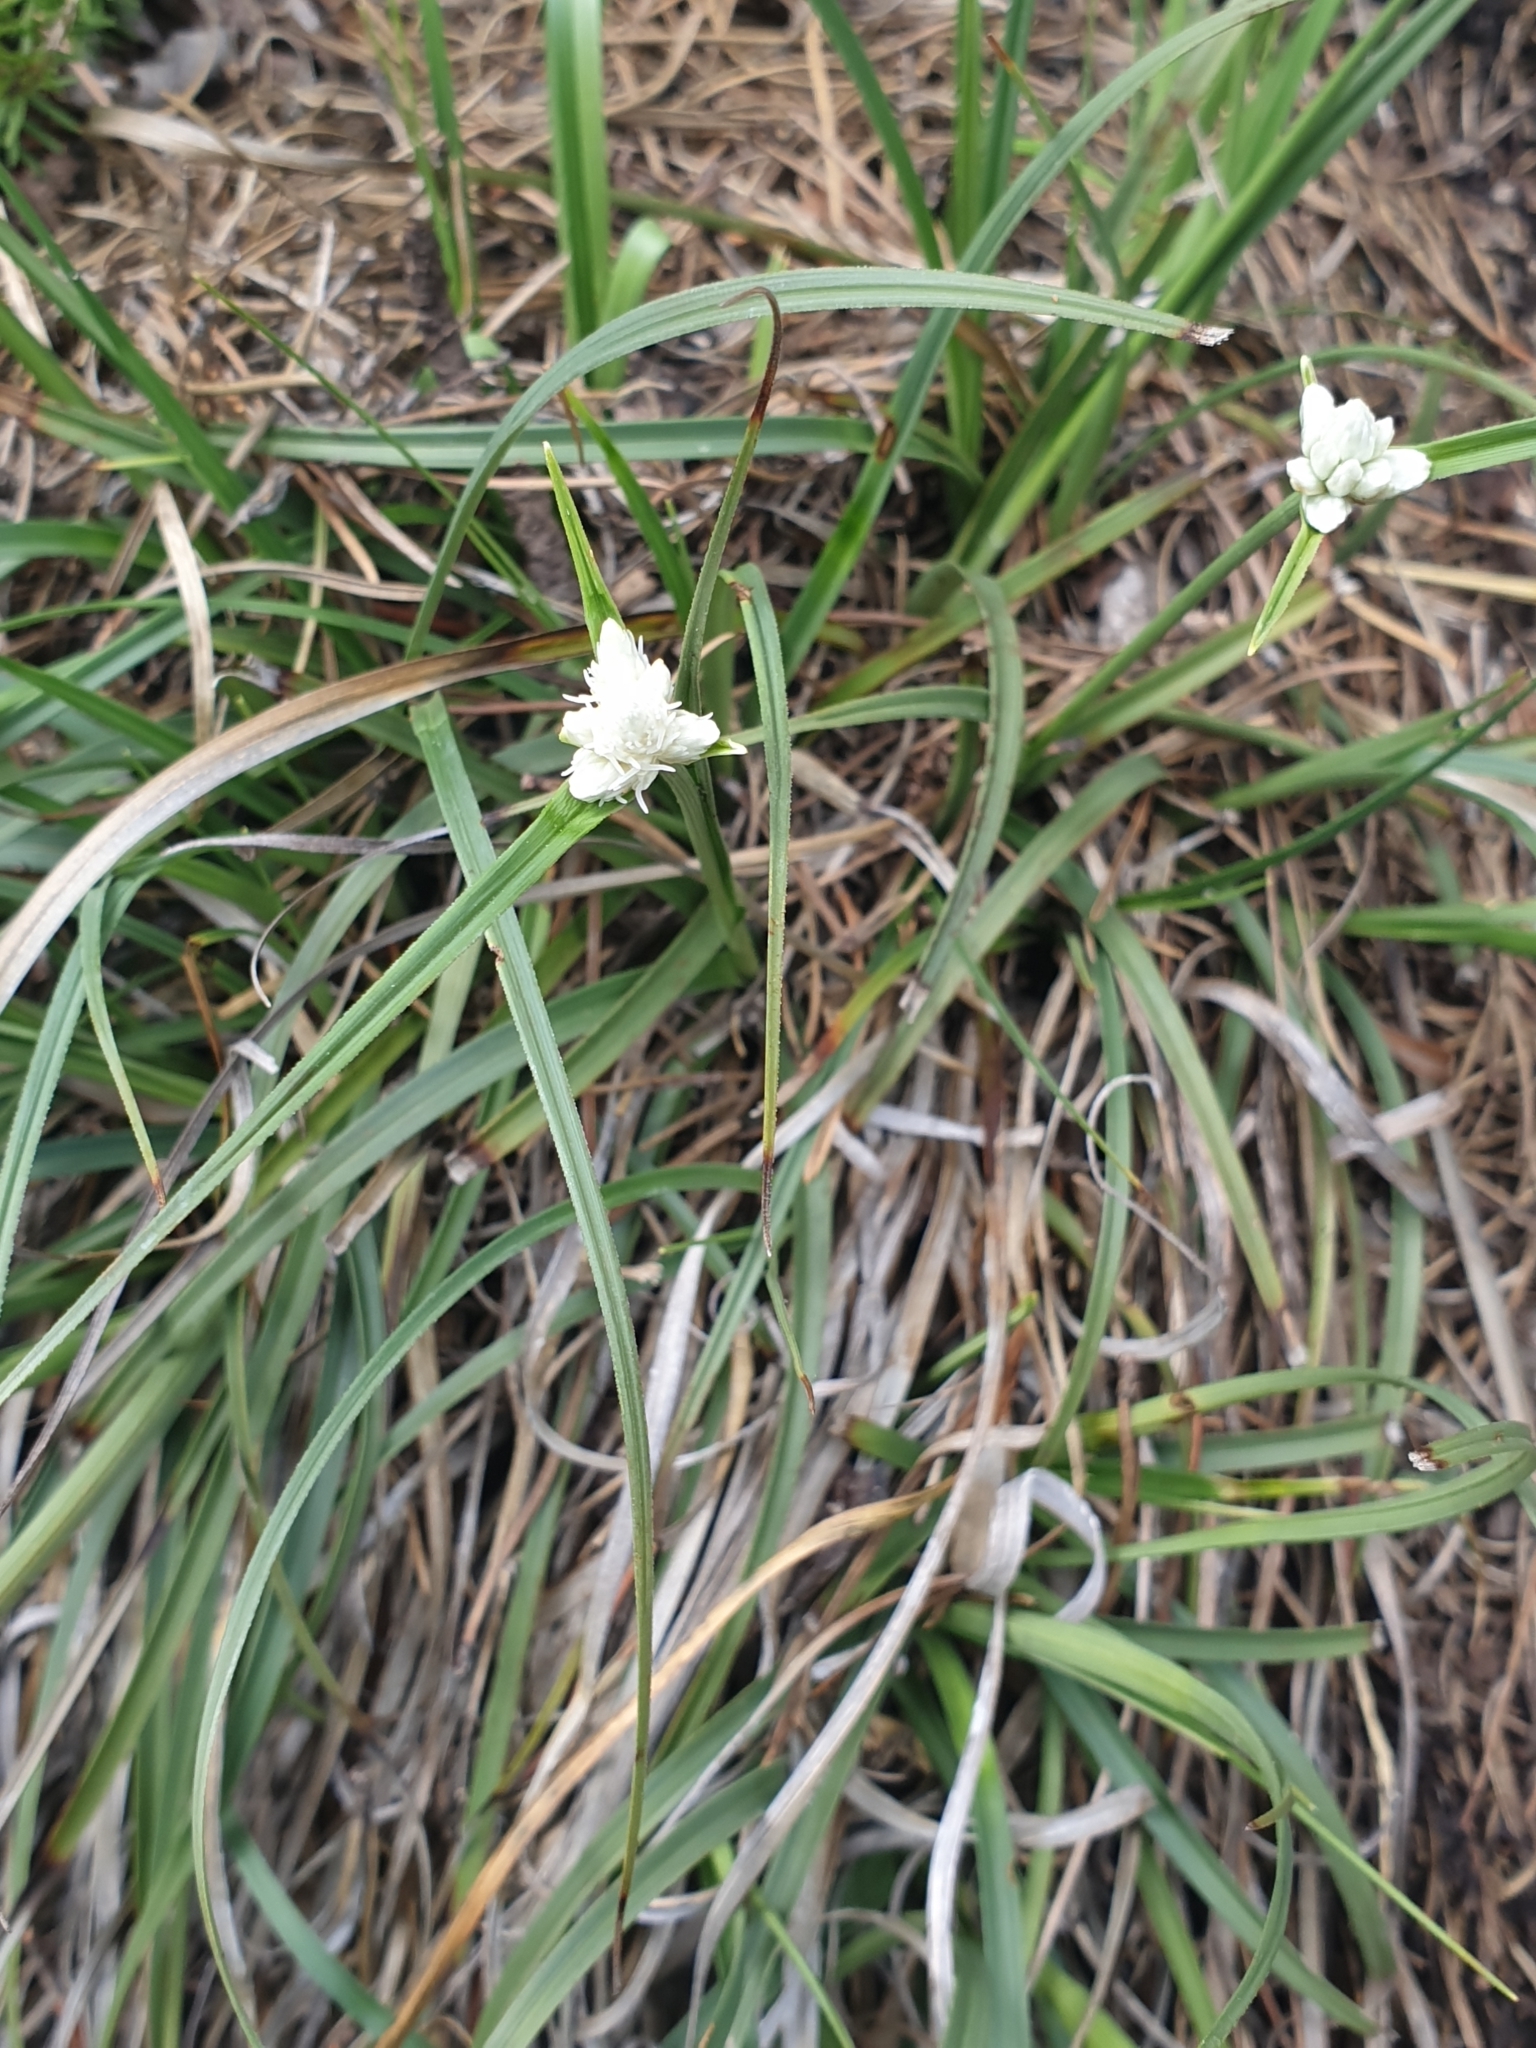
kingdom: Plantae
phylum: Tracheophyta
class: Liliopsida
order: Poales
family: Cyperaceae
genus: Carex
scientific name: Carex baldensis
